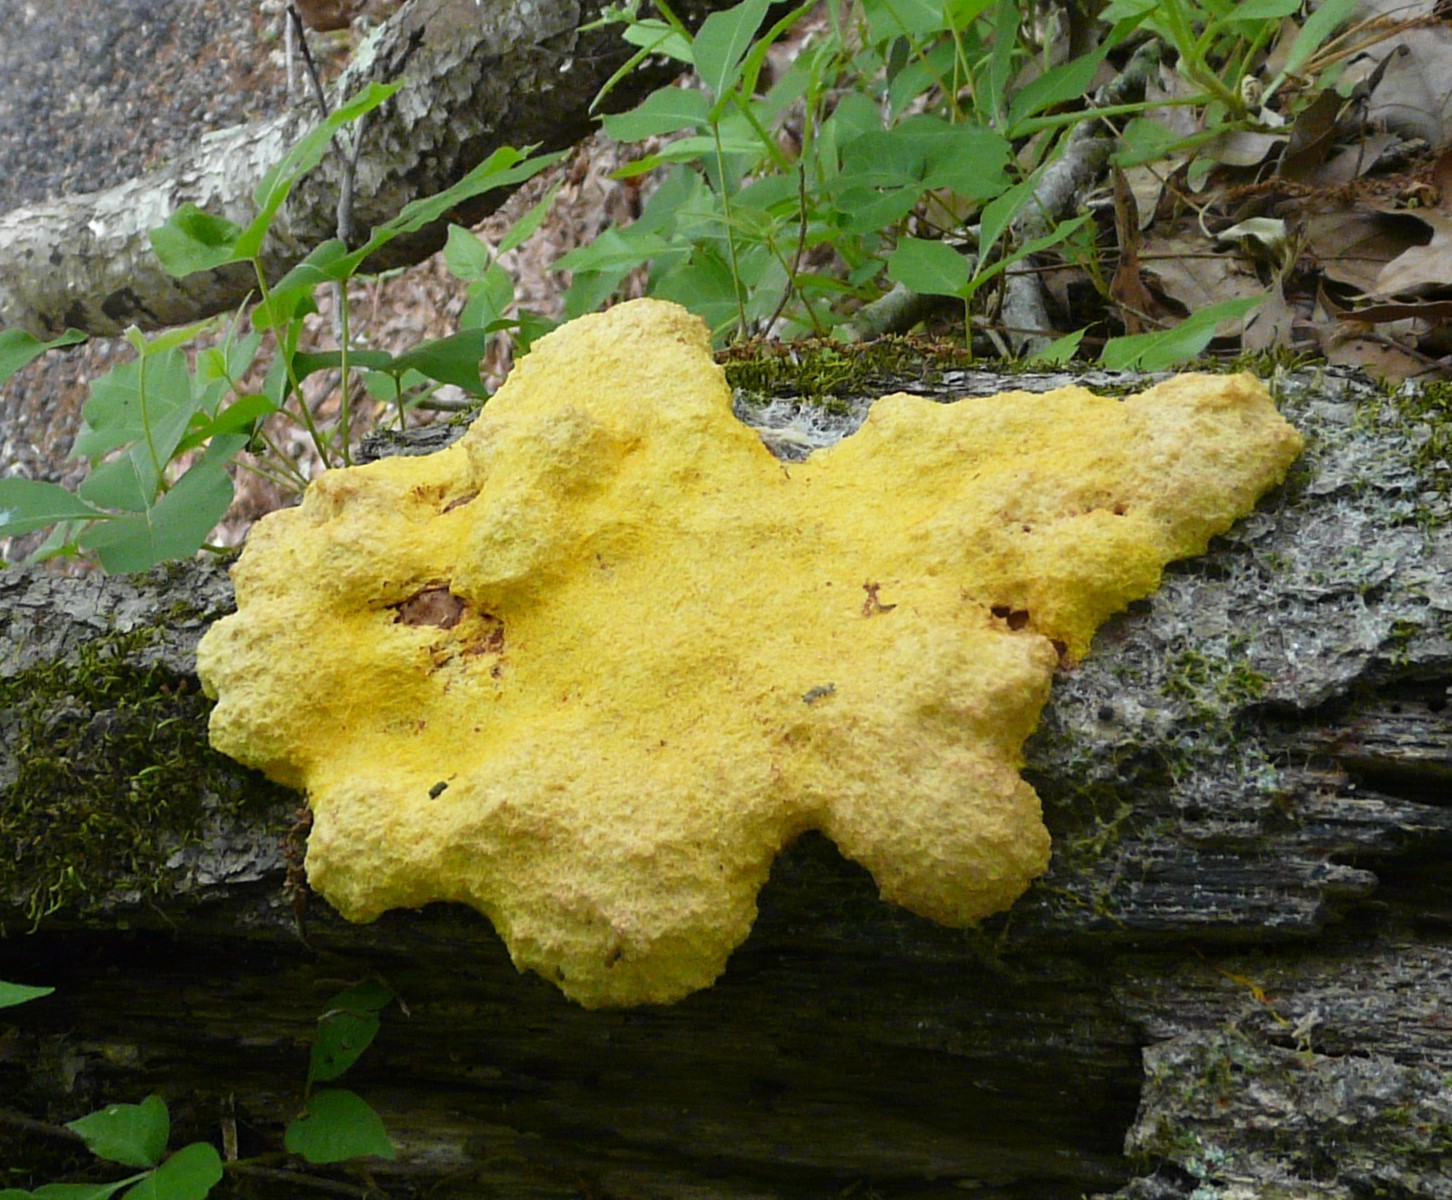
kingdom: Protozoa
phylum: Mycetozoa
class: Myxomycetes
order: Physarales
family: Physaraceae
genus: Fuligo
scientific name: Fuligo septica
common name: Dog vomit slime mold
